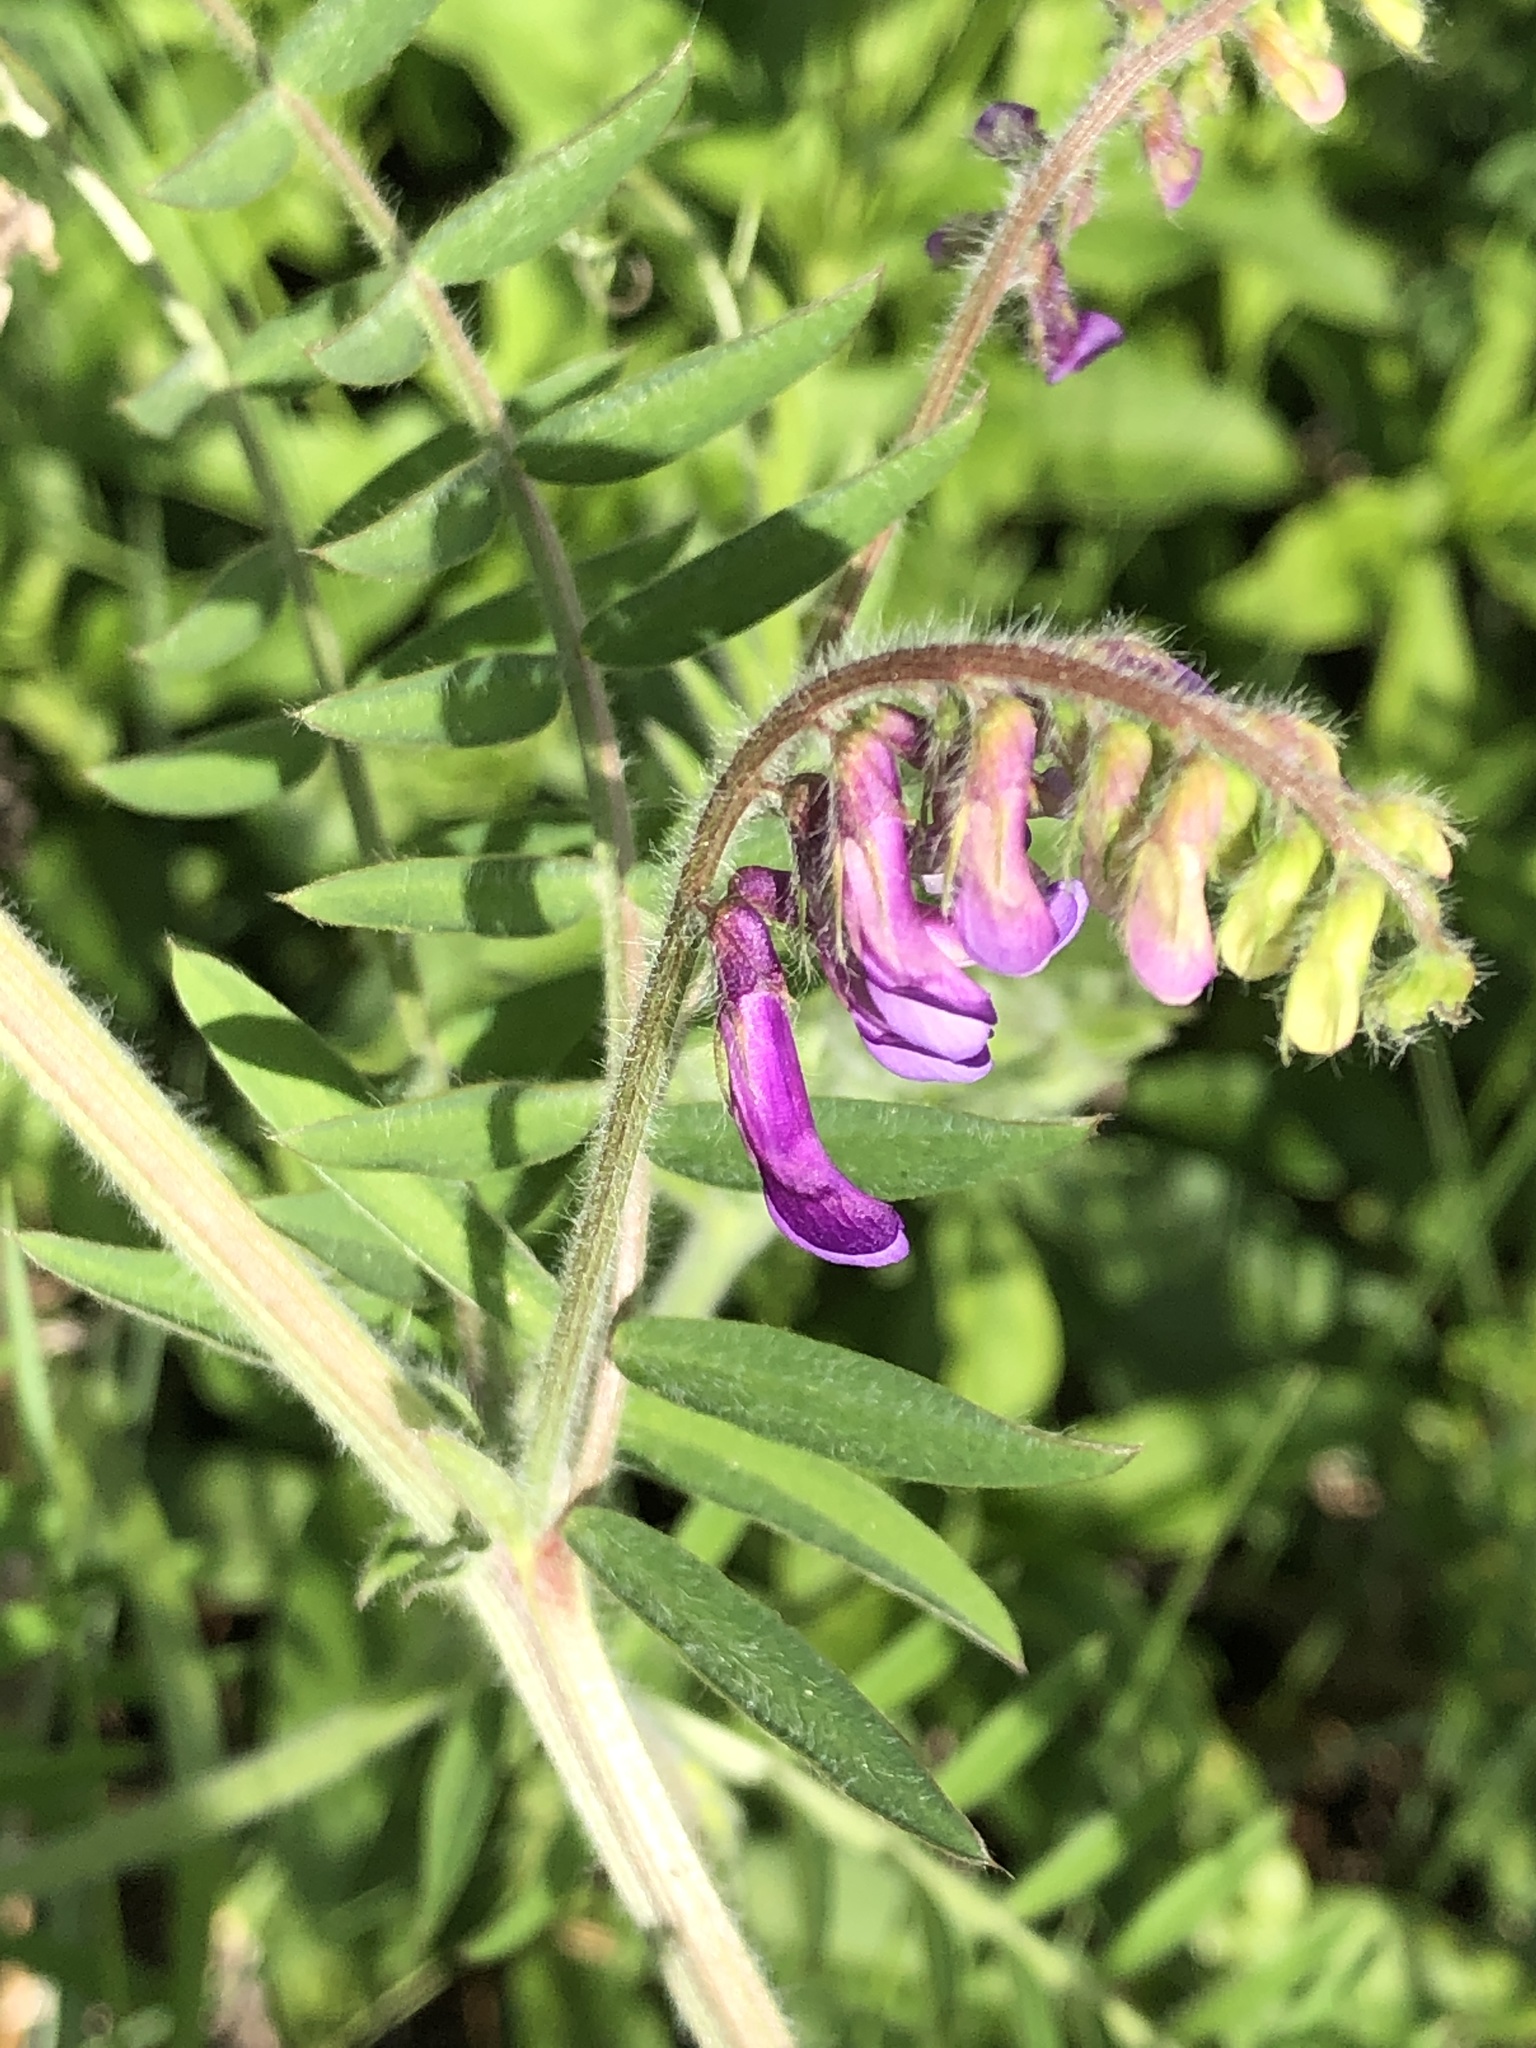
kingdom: Plantae
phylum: Tracheophyta
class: Magnoliopsida
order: Fabales
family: Fabaceae
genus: Vicia
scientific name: Vicia villosa
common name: Fodder vetch
